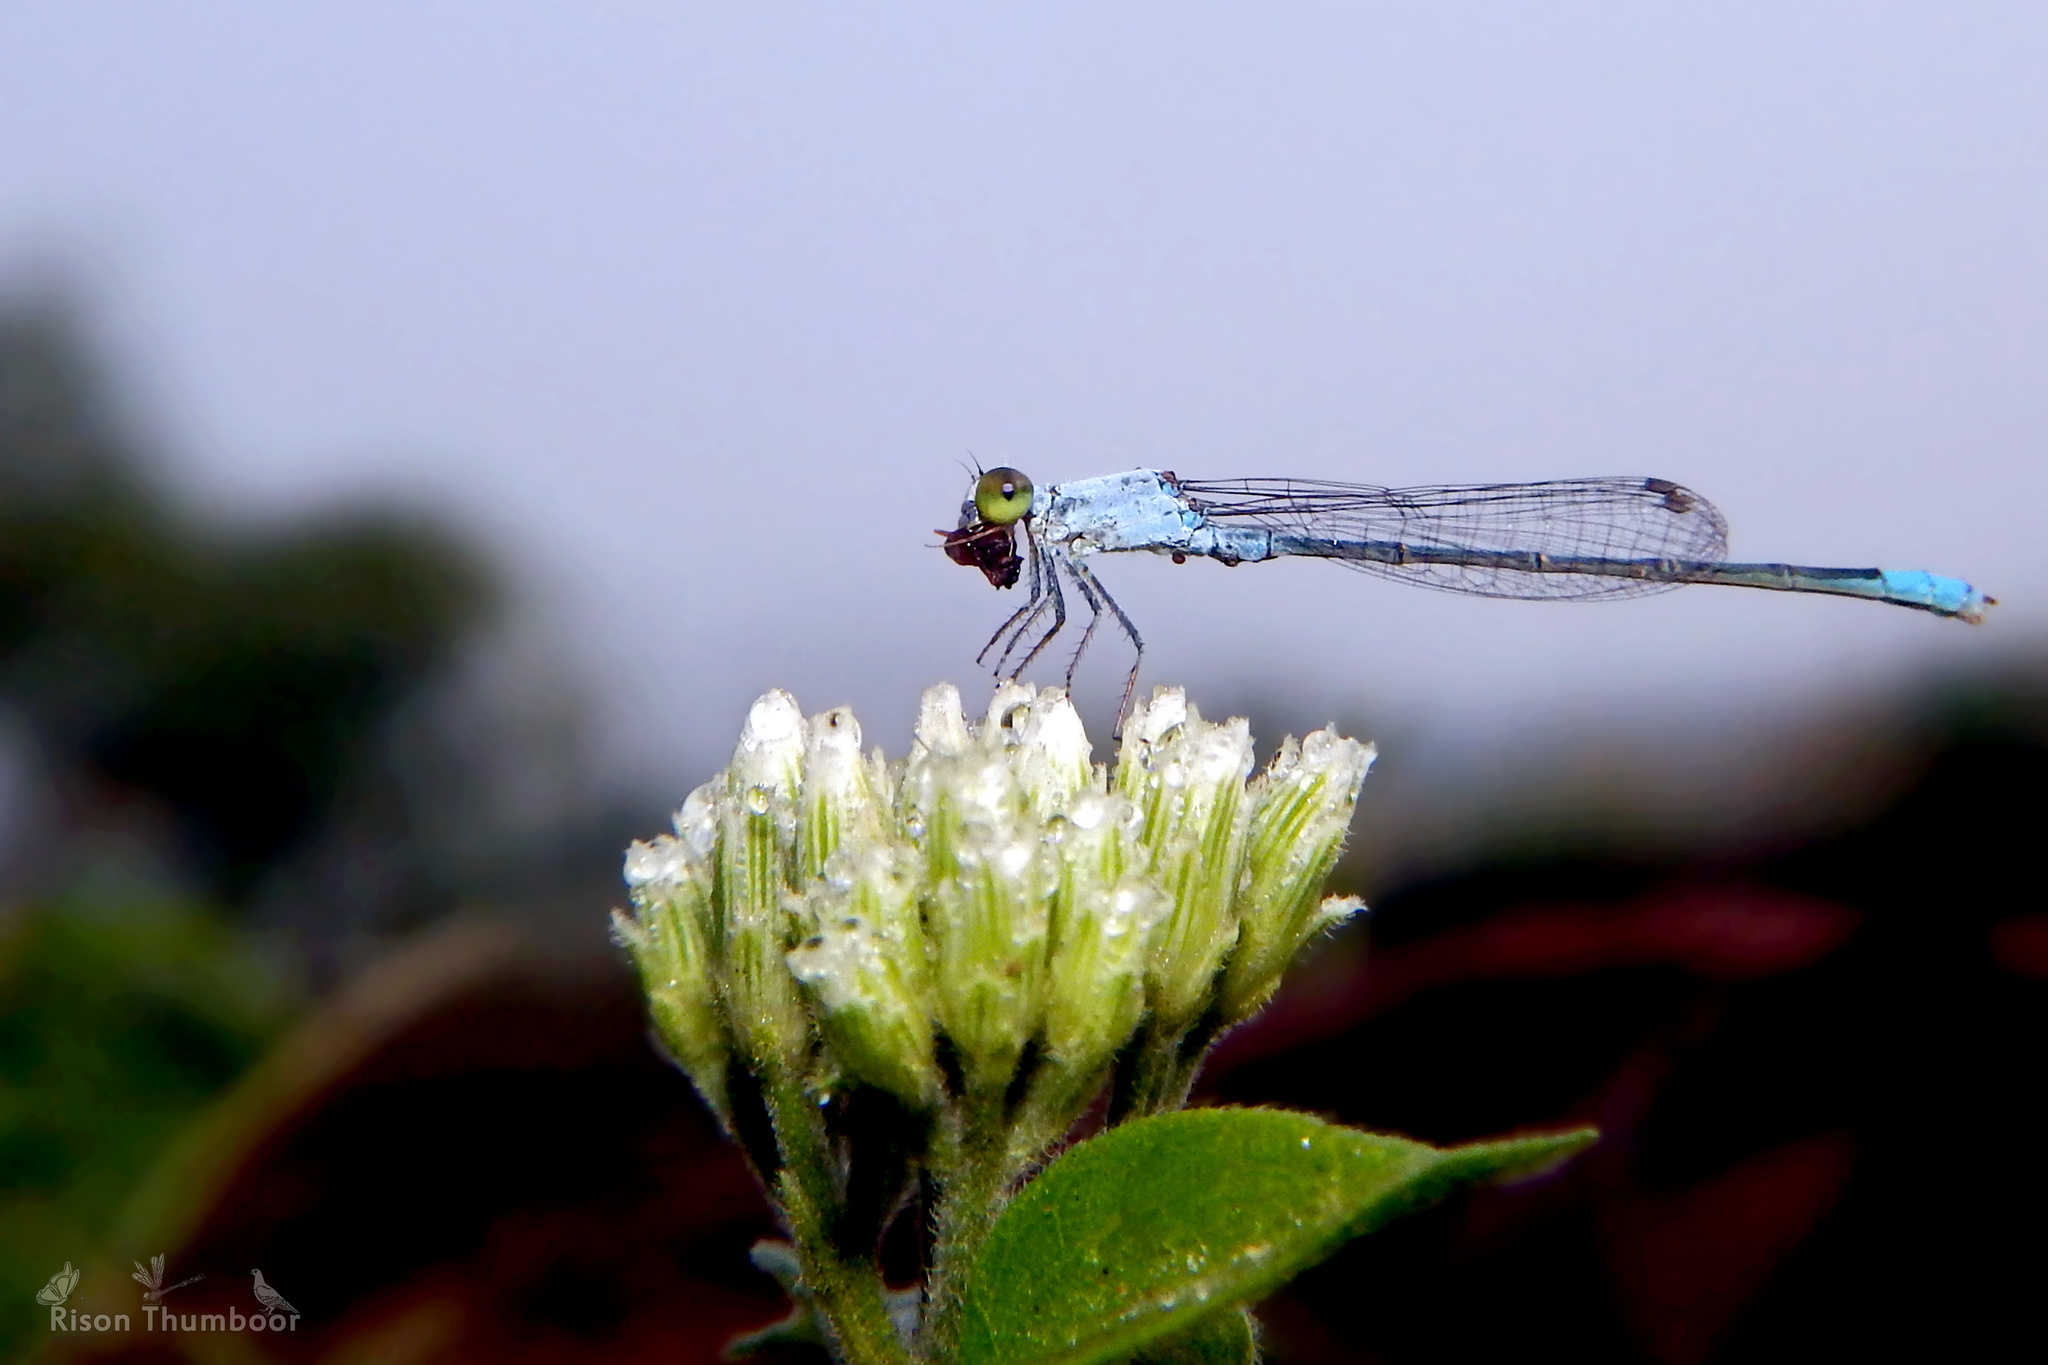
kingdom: Animalia
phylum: Arthropoda
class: Insecta
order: Odonata
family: Coenagrionidae
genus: Paracercion
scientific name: Paracercion calamorum
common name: Dusky lilysquatter
